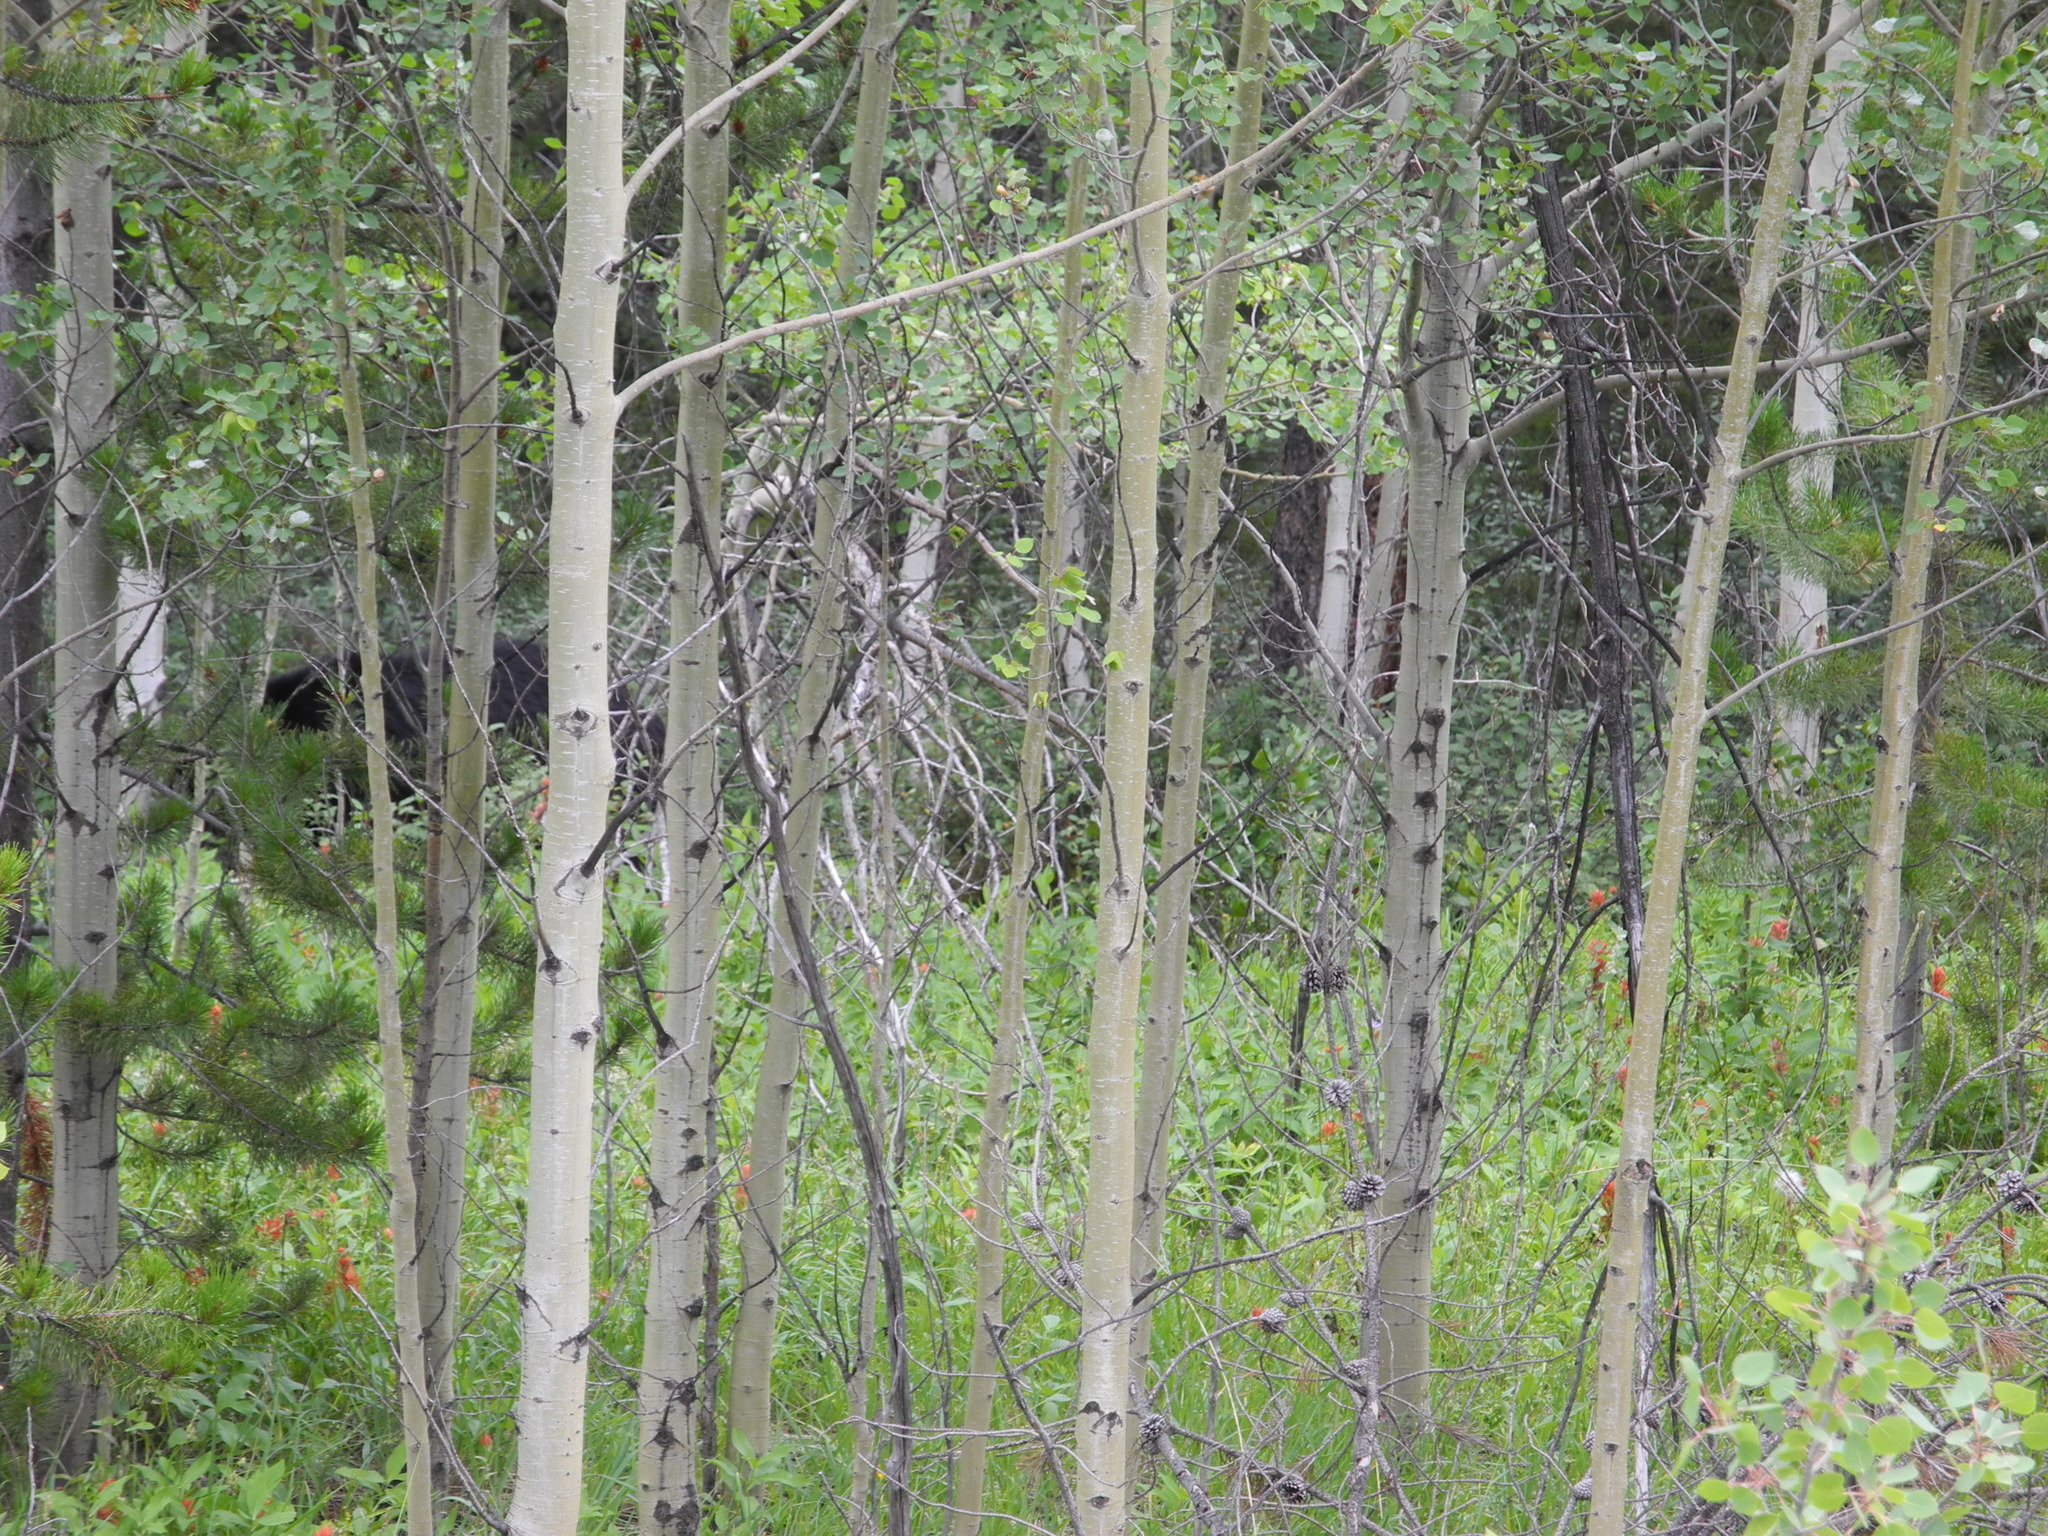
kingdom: Plantae
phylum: Tracheophyta
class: Magnoliopsida
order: Malpighiales
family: Salicaceae
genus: Populus
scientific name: Populus tremuloides
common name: Quaking aspen
